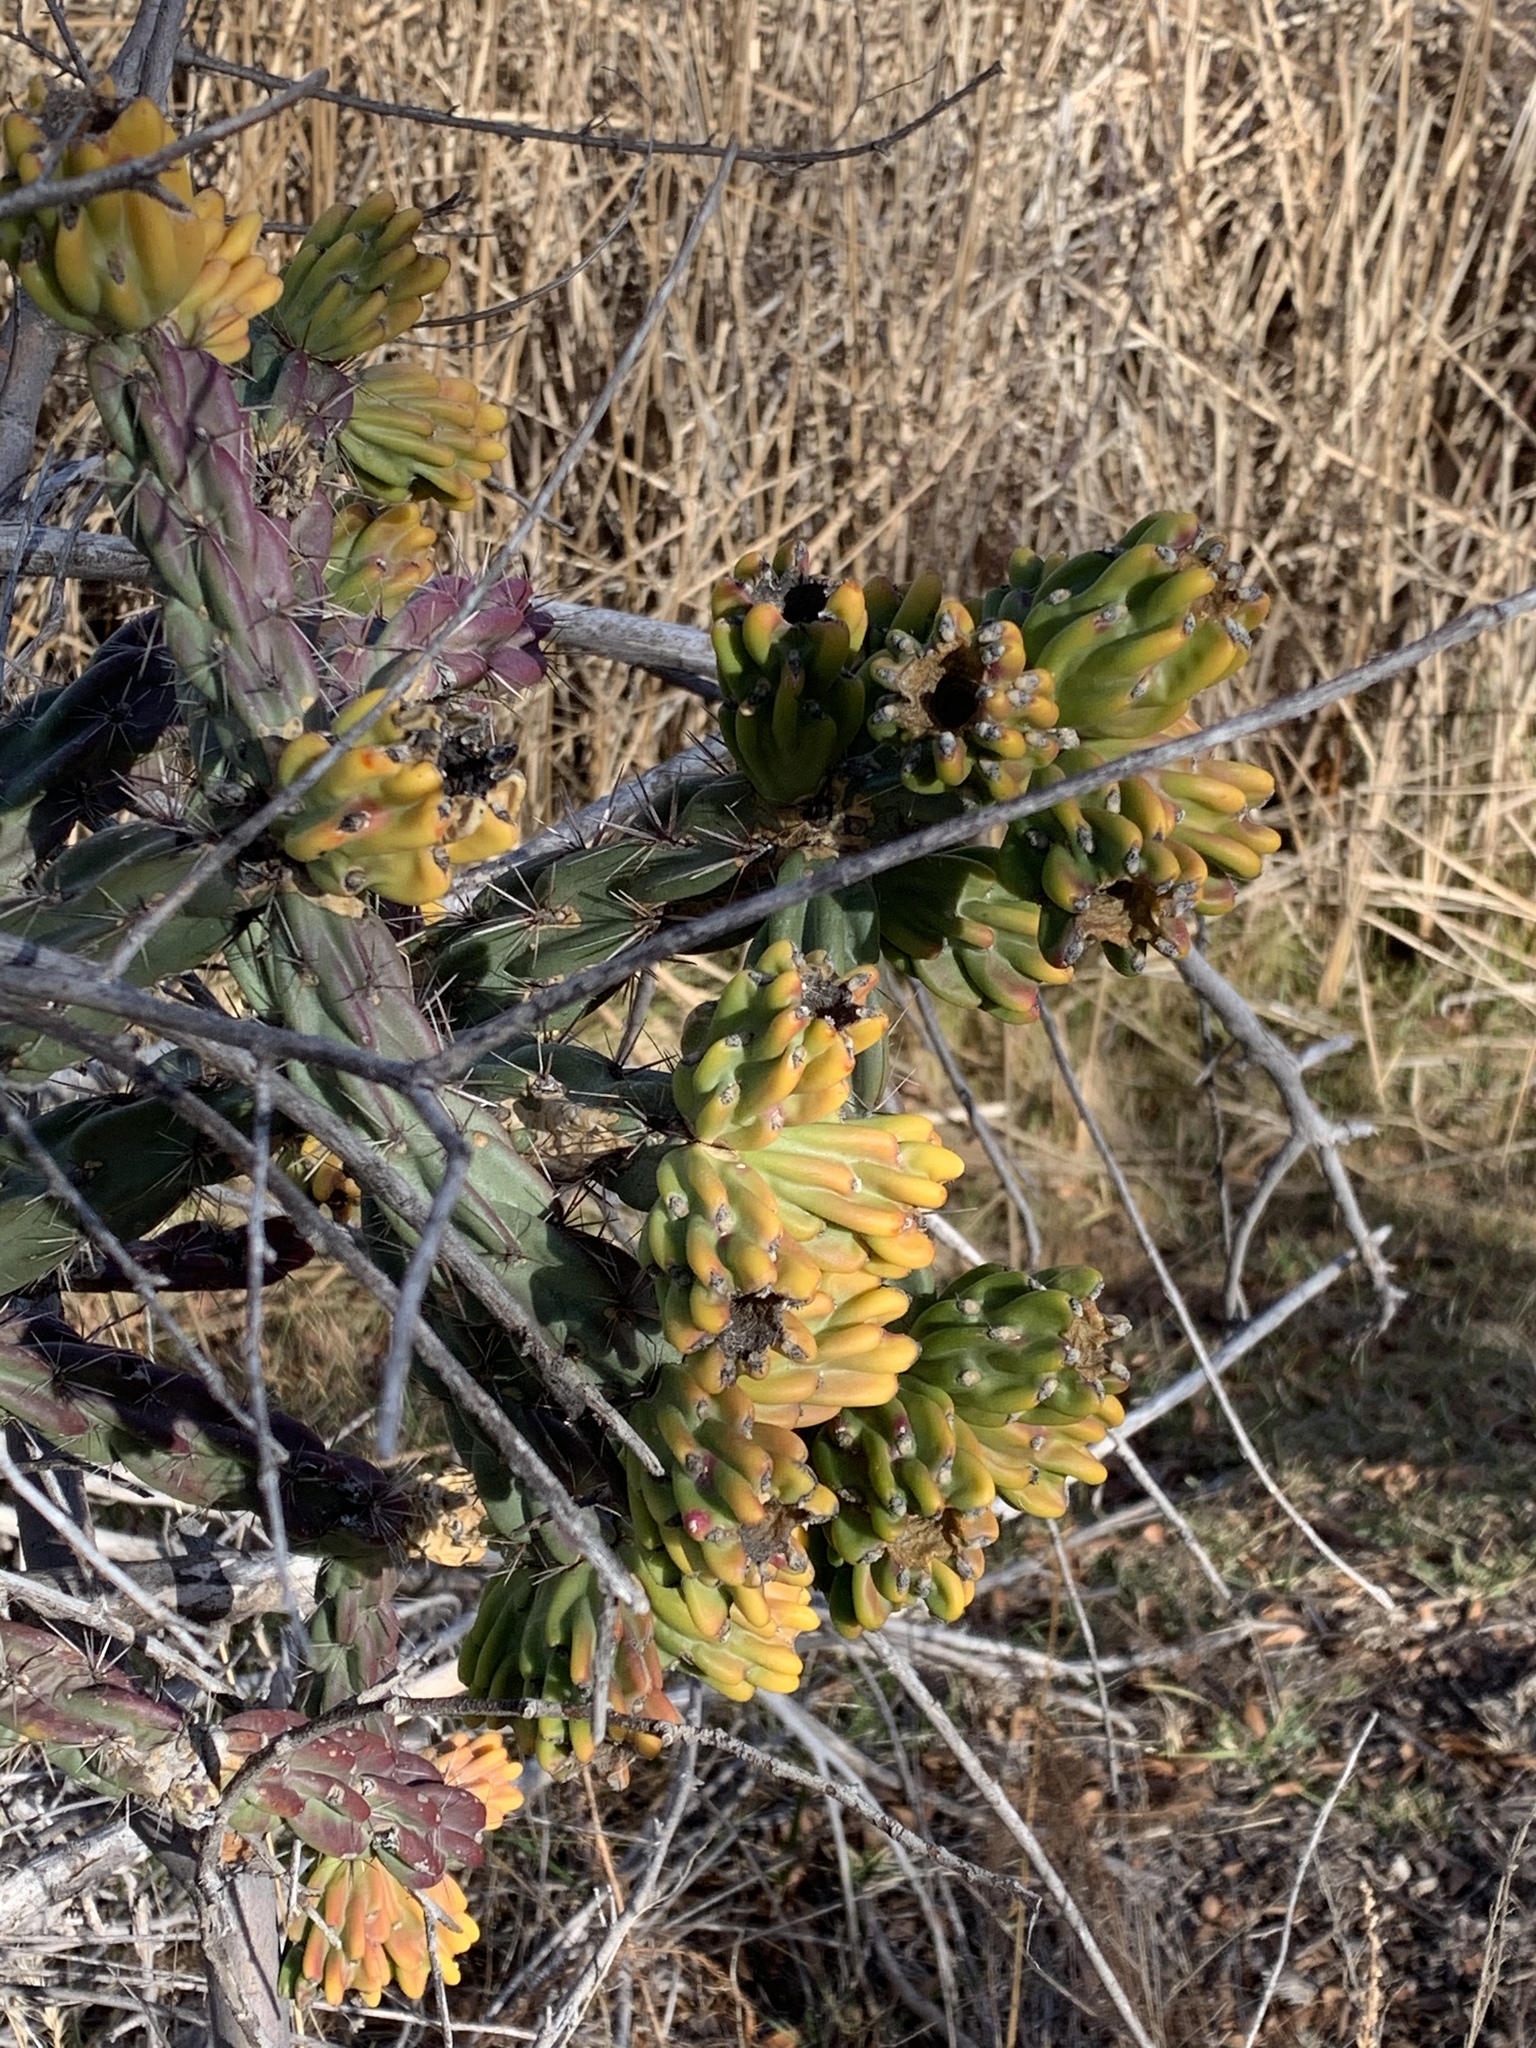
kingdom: Plantae
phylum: Tracheophyta
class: Magnoliopsida
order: Caryophyllales
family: Cactaceae
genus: Cylindropuntia
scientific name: Cylindropuntia imbricata
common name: Candelabrum cactus
